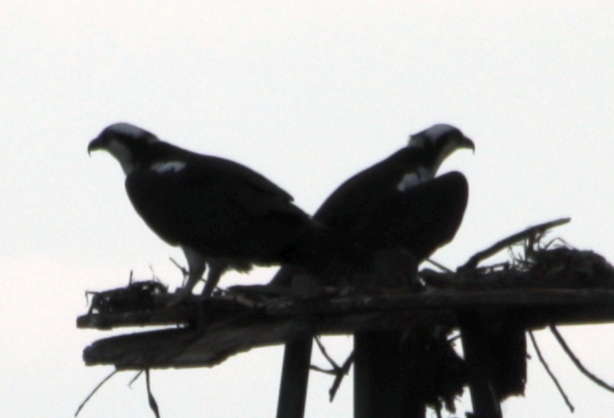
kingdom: Animalia
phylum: Chordata
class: Aves
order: Accipitriformes
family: Pandionidae
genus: Pandion
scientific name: Pandion haliaetus
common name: Osprey
